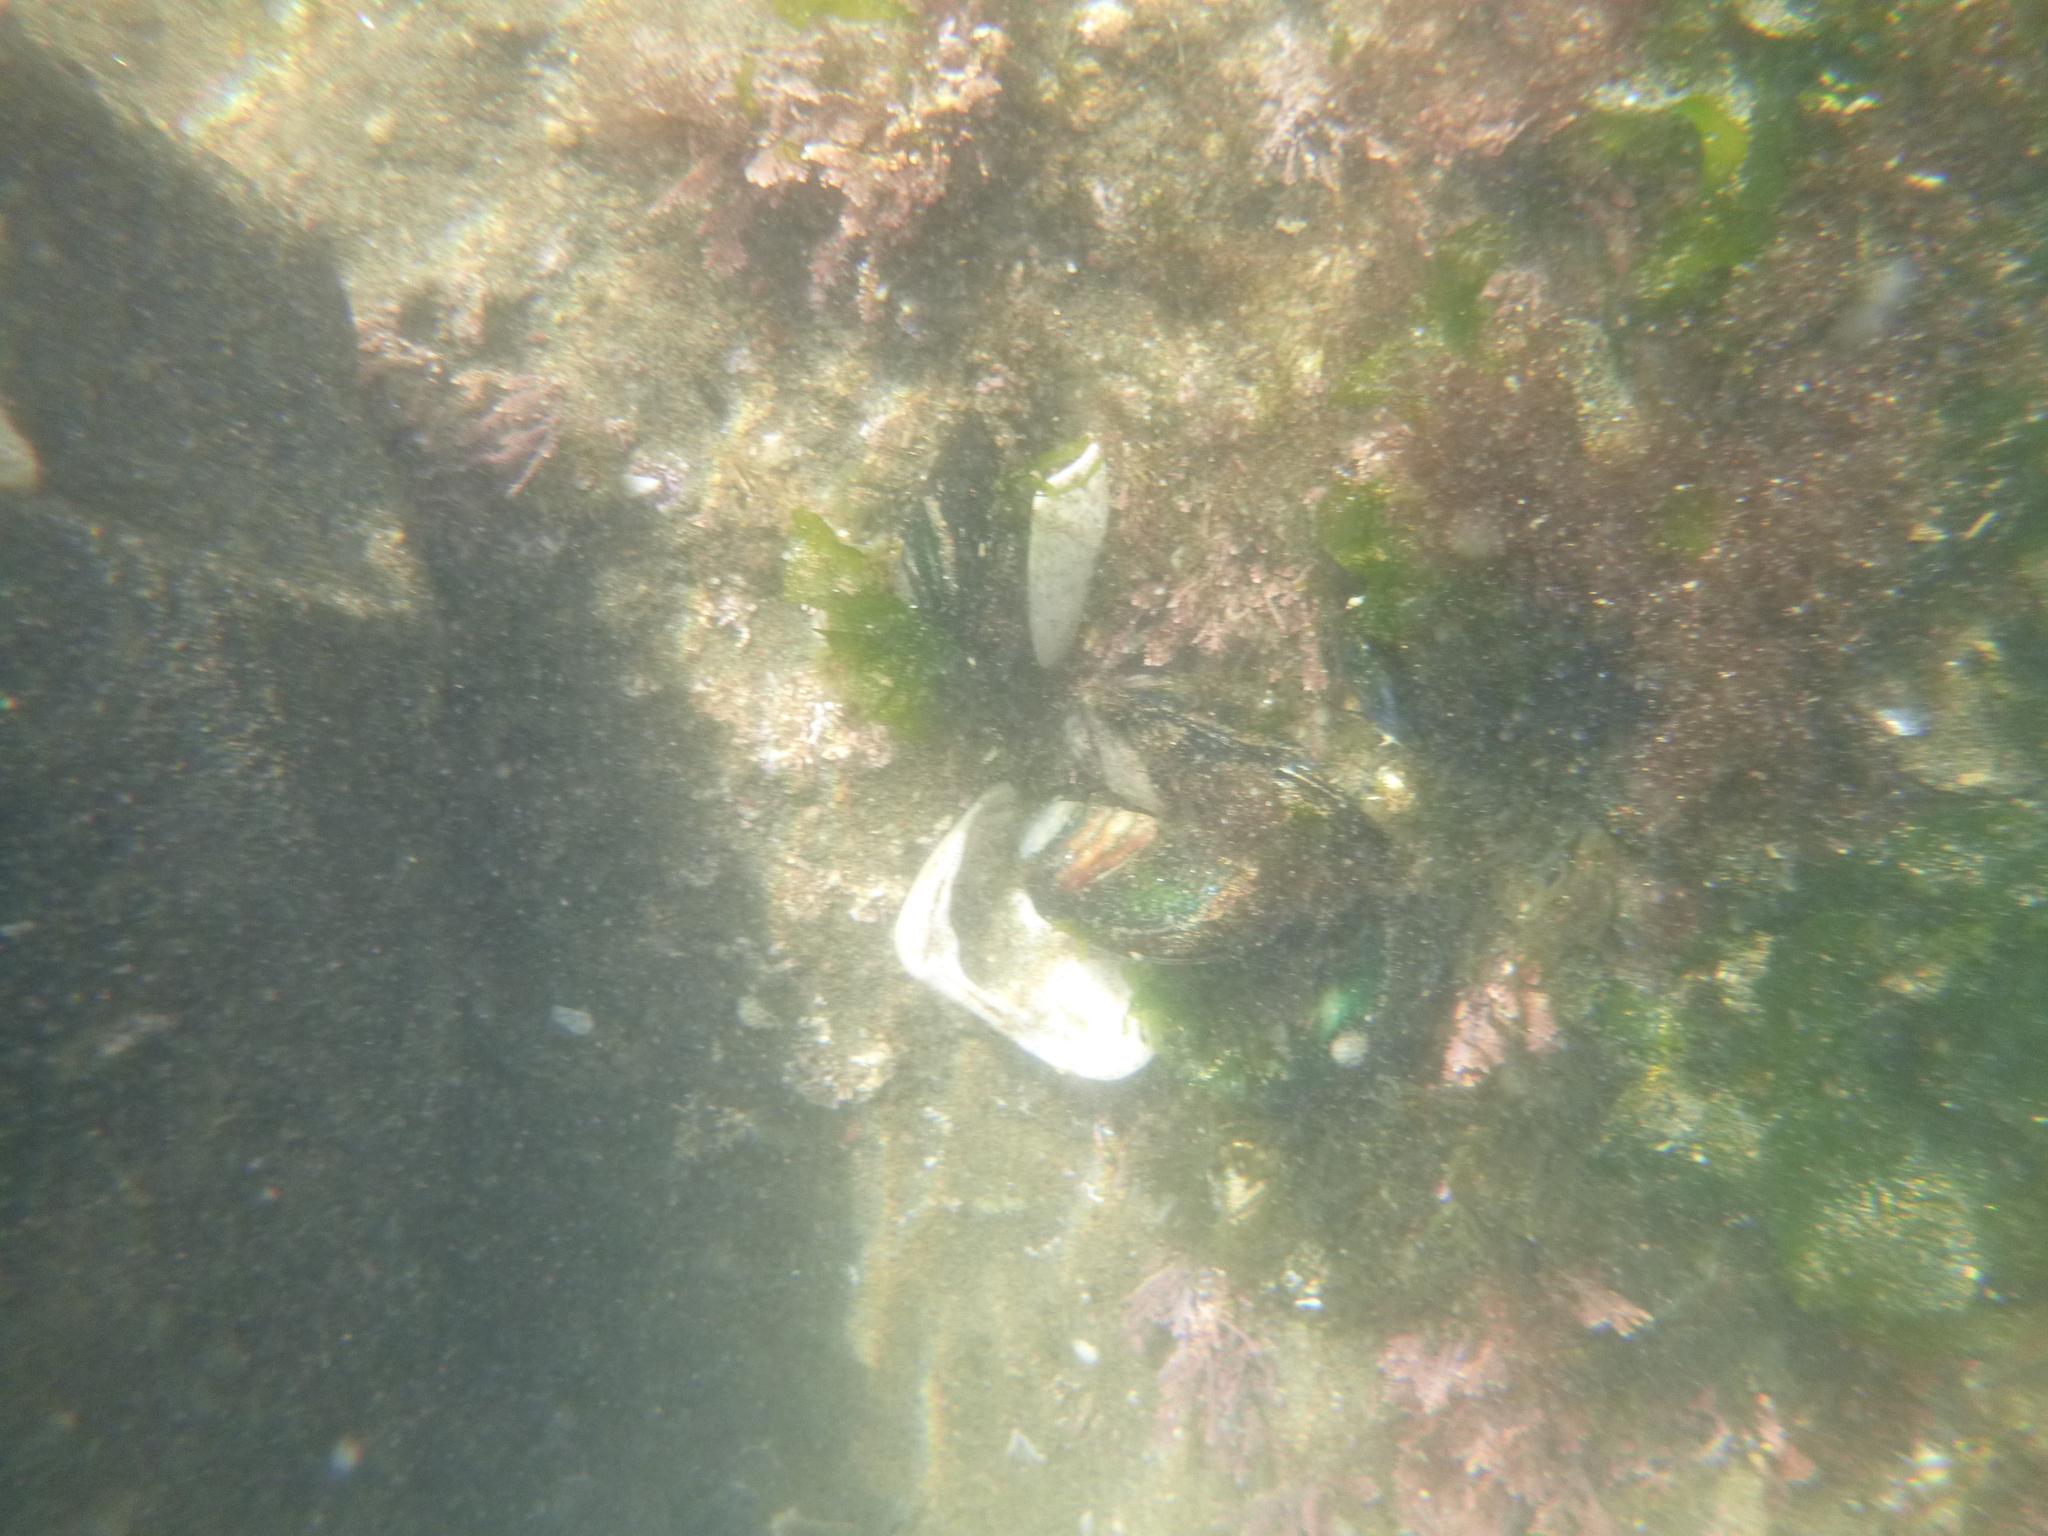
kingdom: Animalia
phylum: Mollusca
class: Bivalvia
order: Mytilida
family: Mytilidae
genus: Perna
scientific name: Perna canaliculus
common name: New zealand greenshelltm
